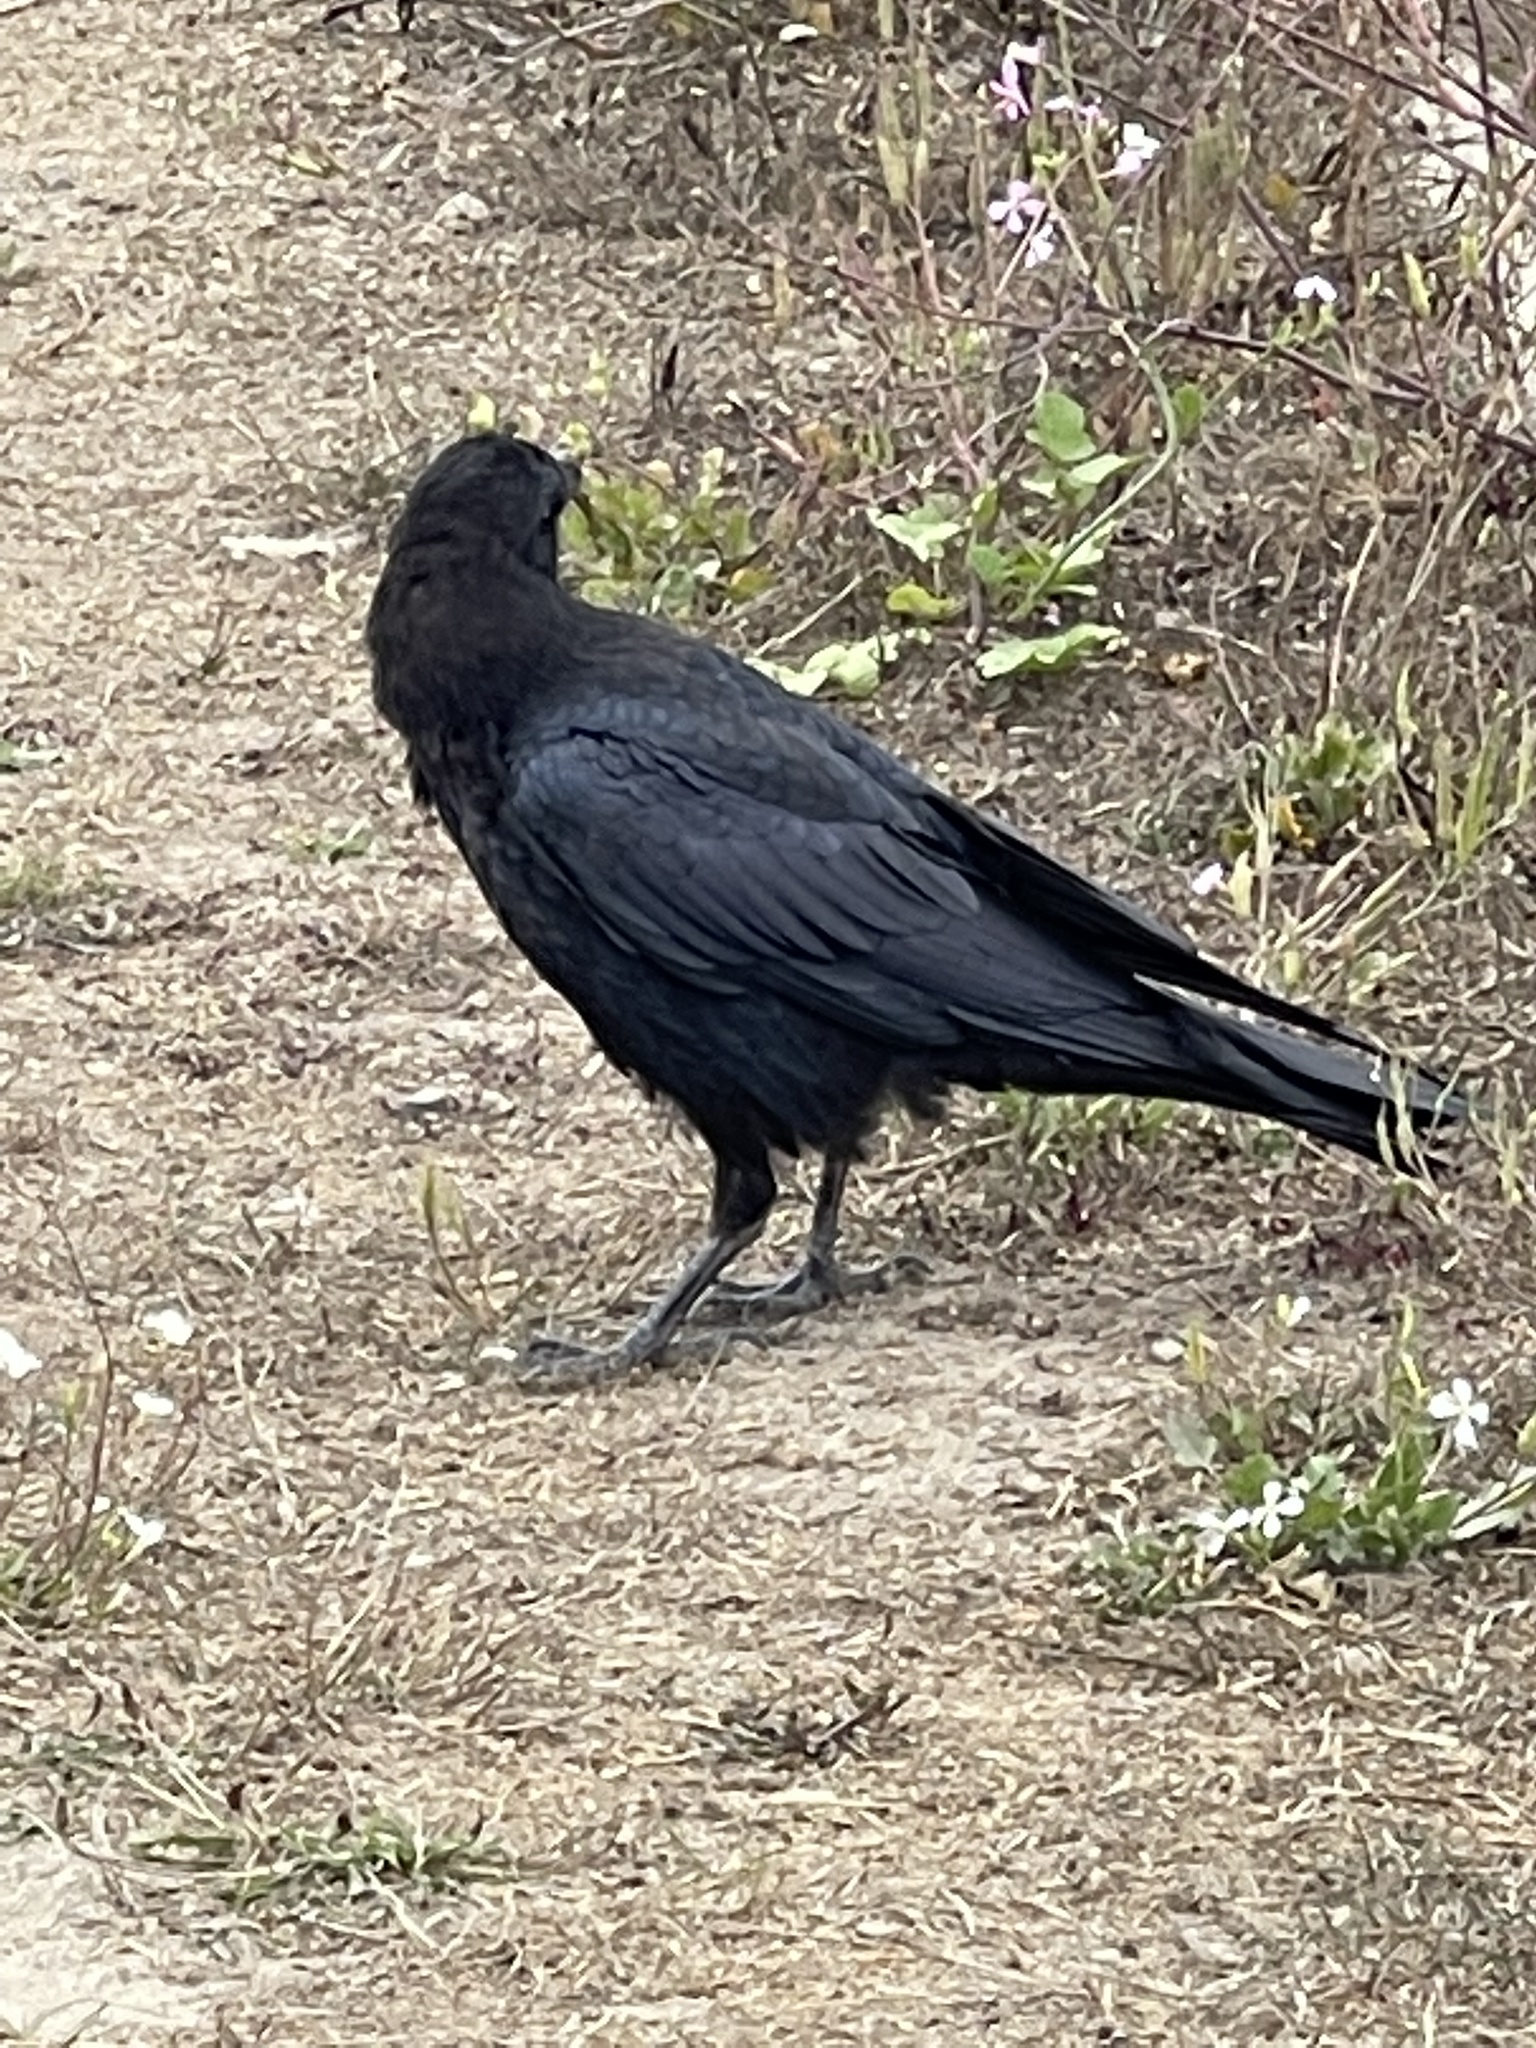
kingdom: Animalia
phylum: Chordata
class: Aves
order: Passeriformes
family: Corvidae
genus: Corvus
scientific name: Corvus corax
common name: Common raven
